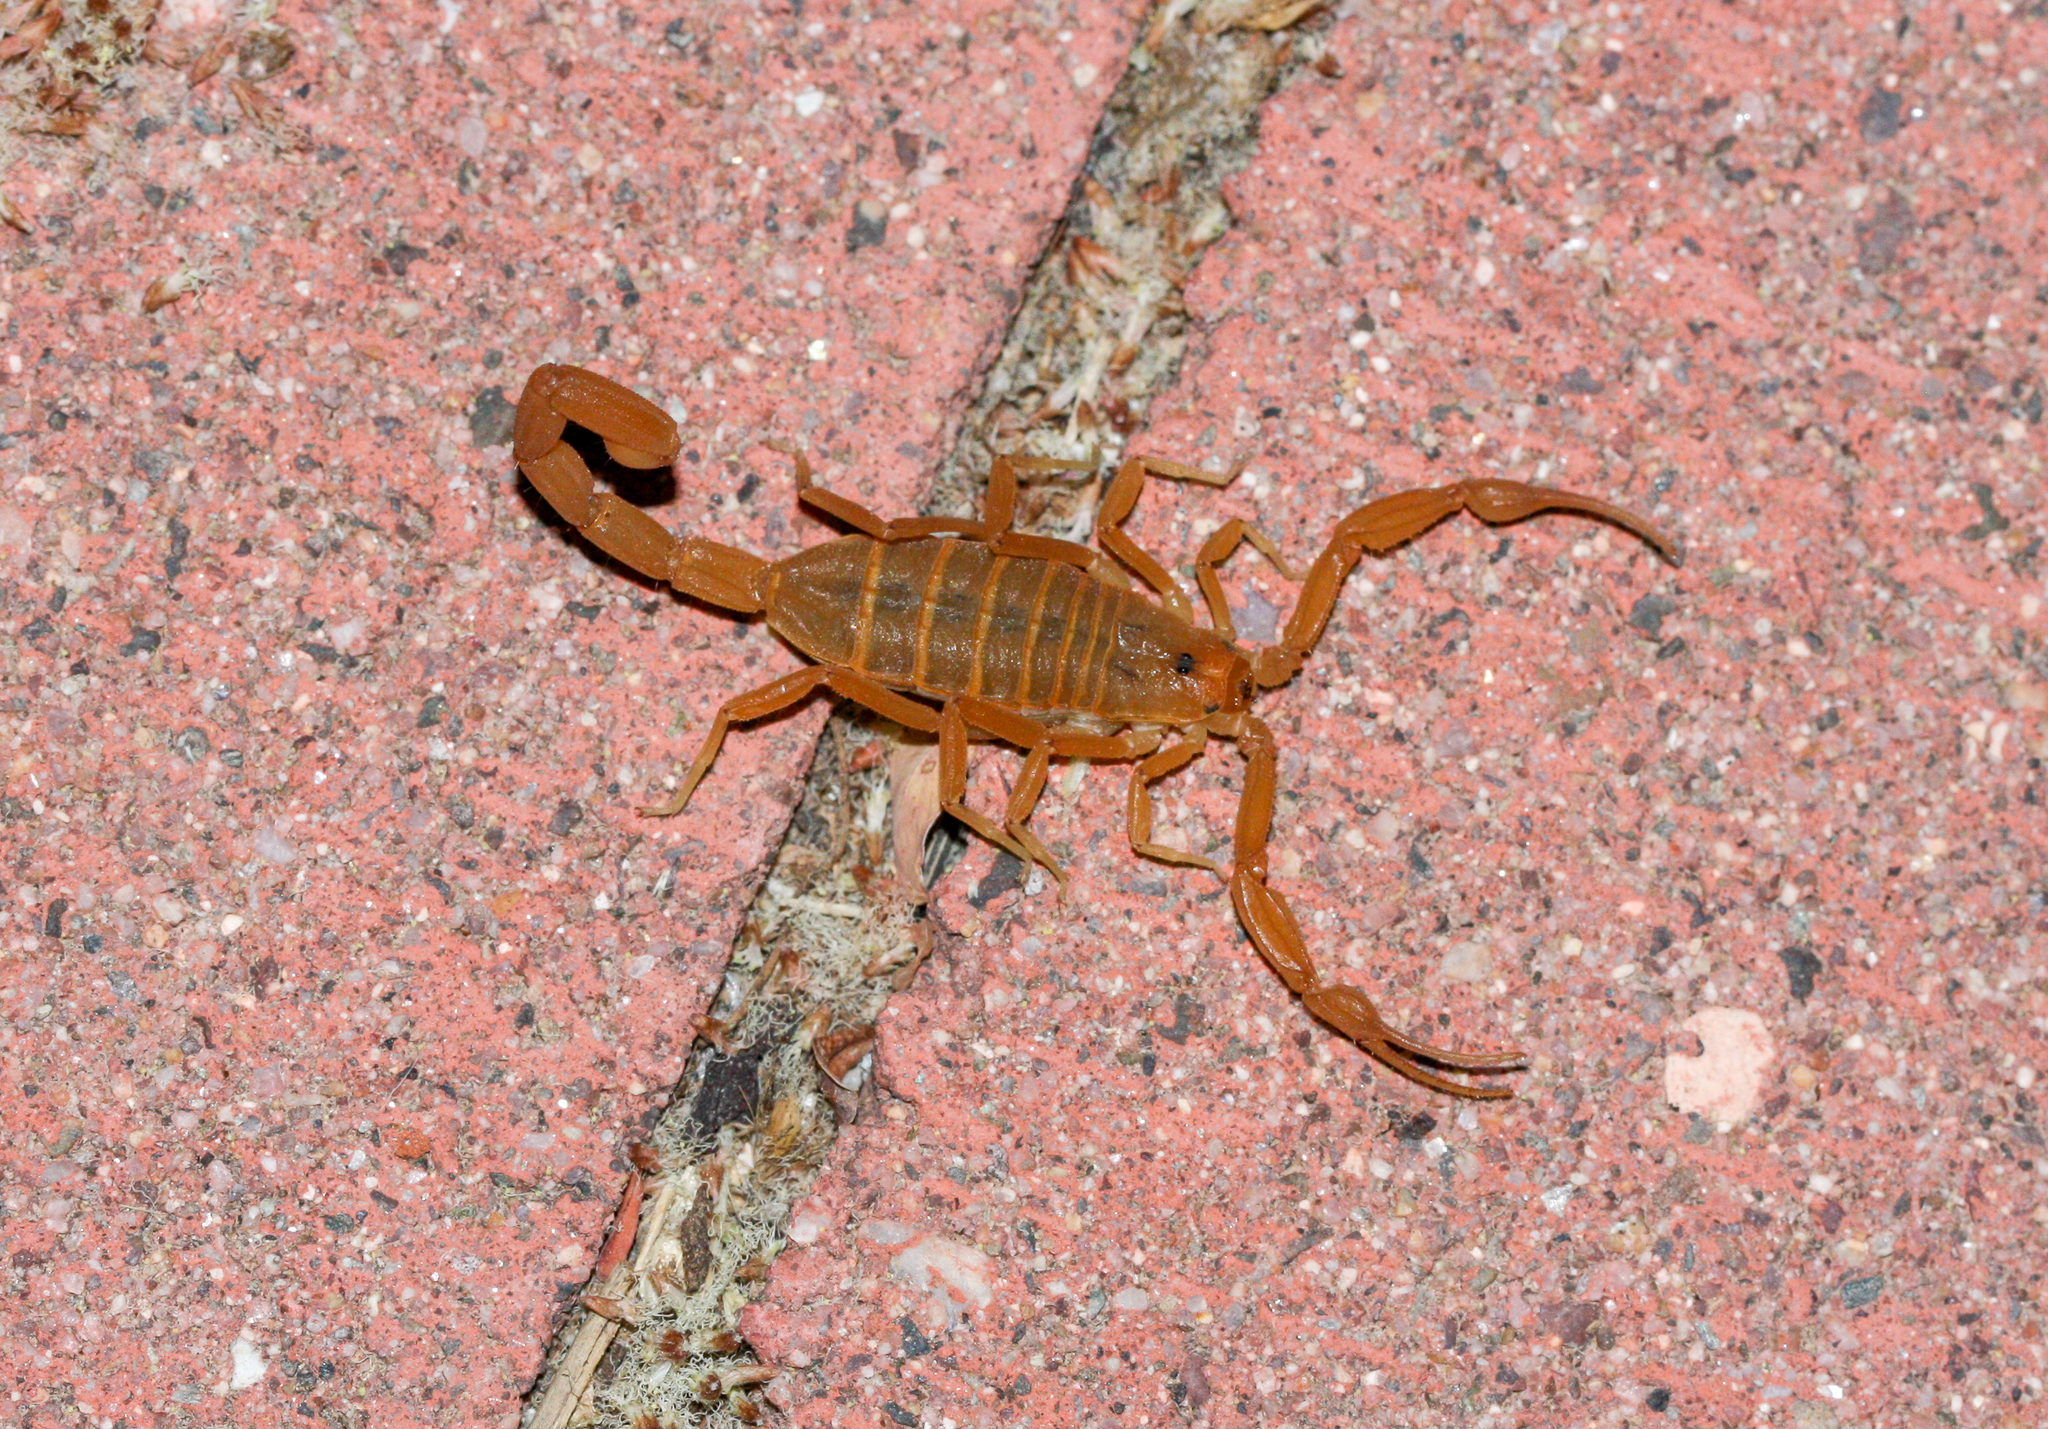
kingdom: Animalia
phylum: Arthropoda
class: Arachnida
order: Scorpiones
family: Buthidae
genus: Centruroides
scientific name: Centruroides sculpturatus
